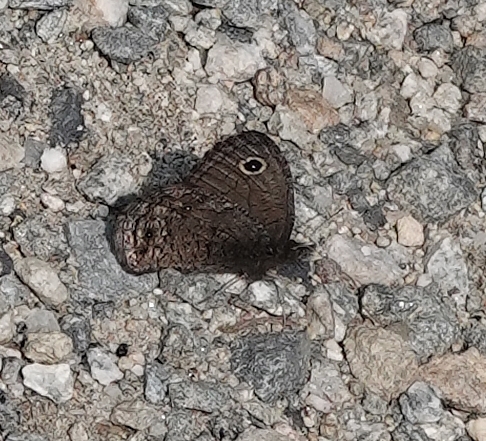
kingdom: Animalia
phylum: Arthropoda
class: Insecta
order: Lepidoptera
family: Nymphalidae
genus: Cercyonis
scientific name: Cercyonis oetus
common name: Small wood-nymph
